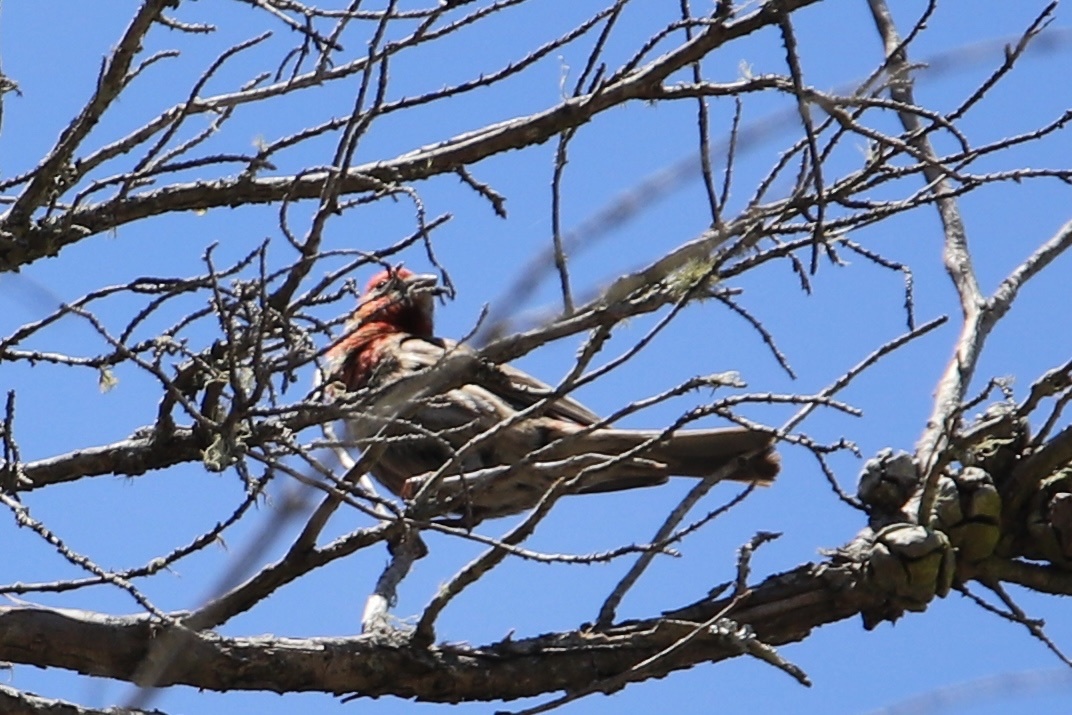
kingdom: Animalia
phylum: Chordata
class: Aves
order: Passeriformes
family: Fringillidae
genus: Haemorhous
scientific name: Haemorhous mexicanus
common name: House finch
